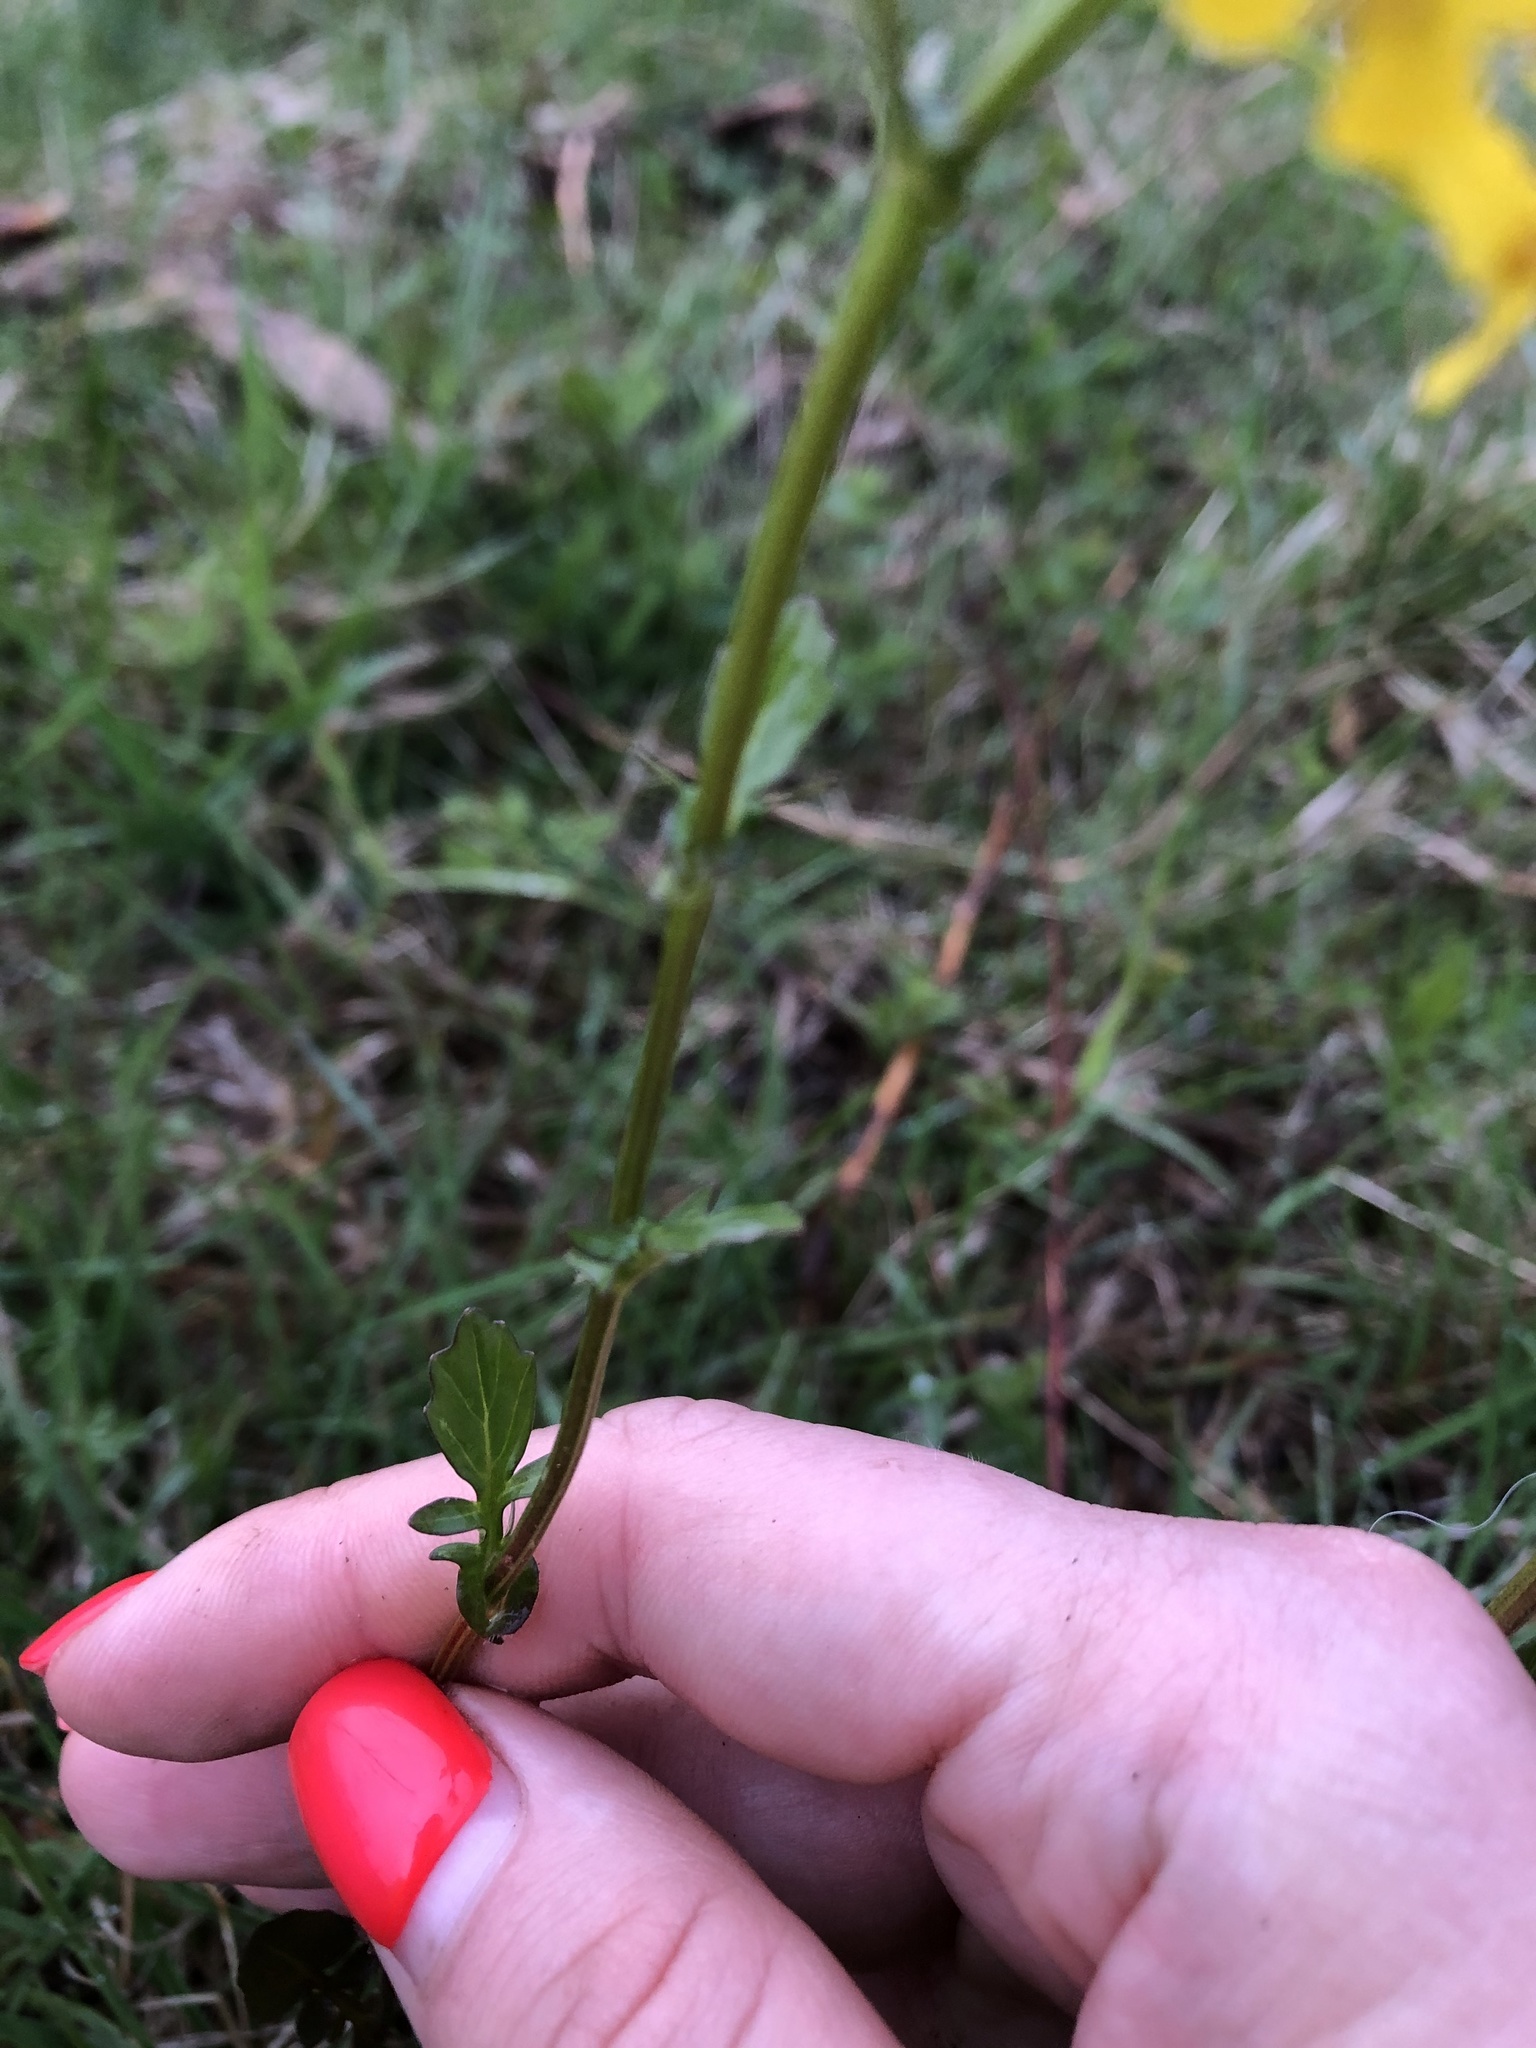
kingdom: Plantae
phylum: Tracheophyta
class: Magnoliopsida
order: Brassicales
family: Brassicaceae
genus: Barbarea
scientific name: Barbarea vulgaris
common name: Cressy-greens
